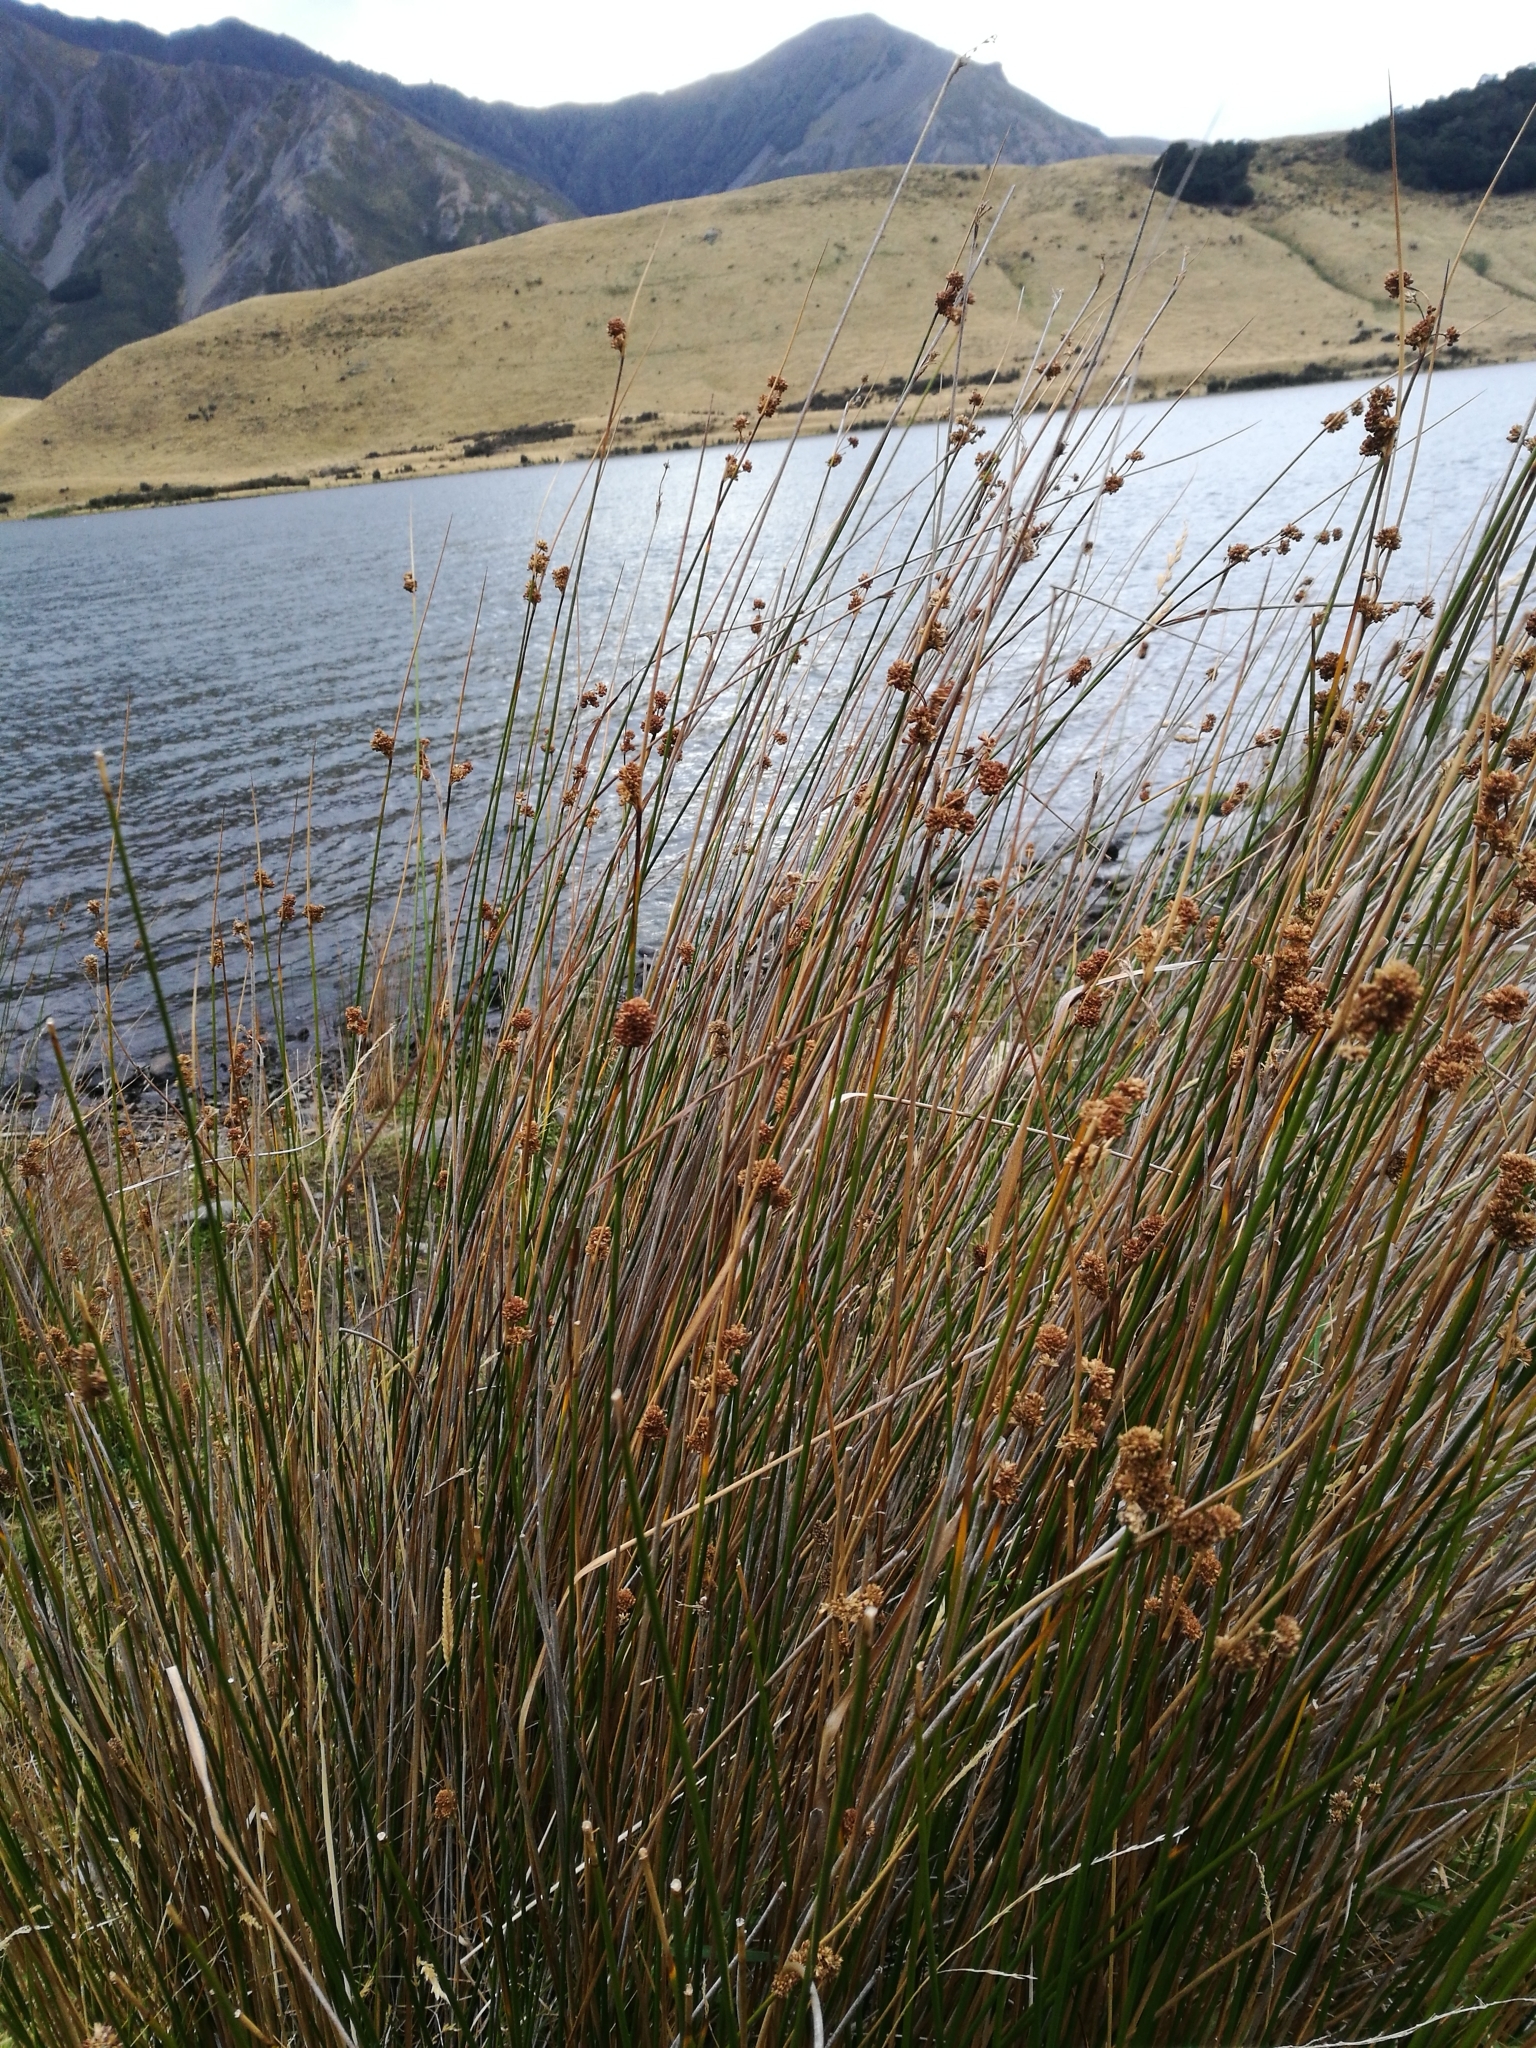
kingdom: Plantae
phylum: Tracheophyta
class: Liliopsida
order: Poales
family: Cyperaceae
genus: Ficinia
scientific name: Ficinia nodosa
